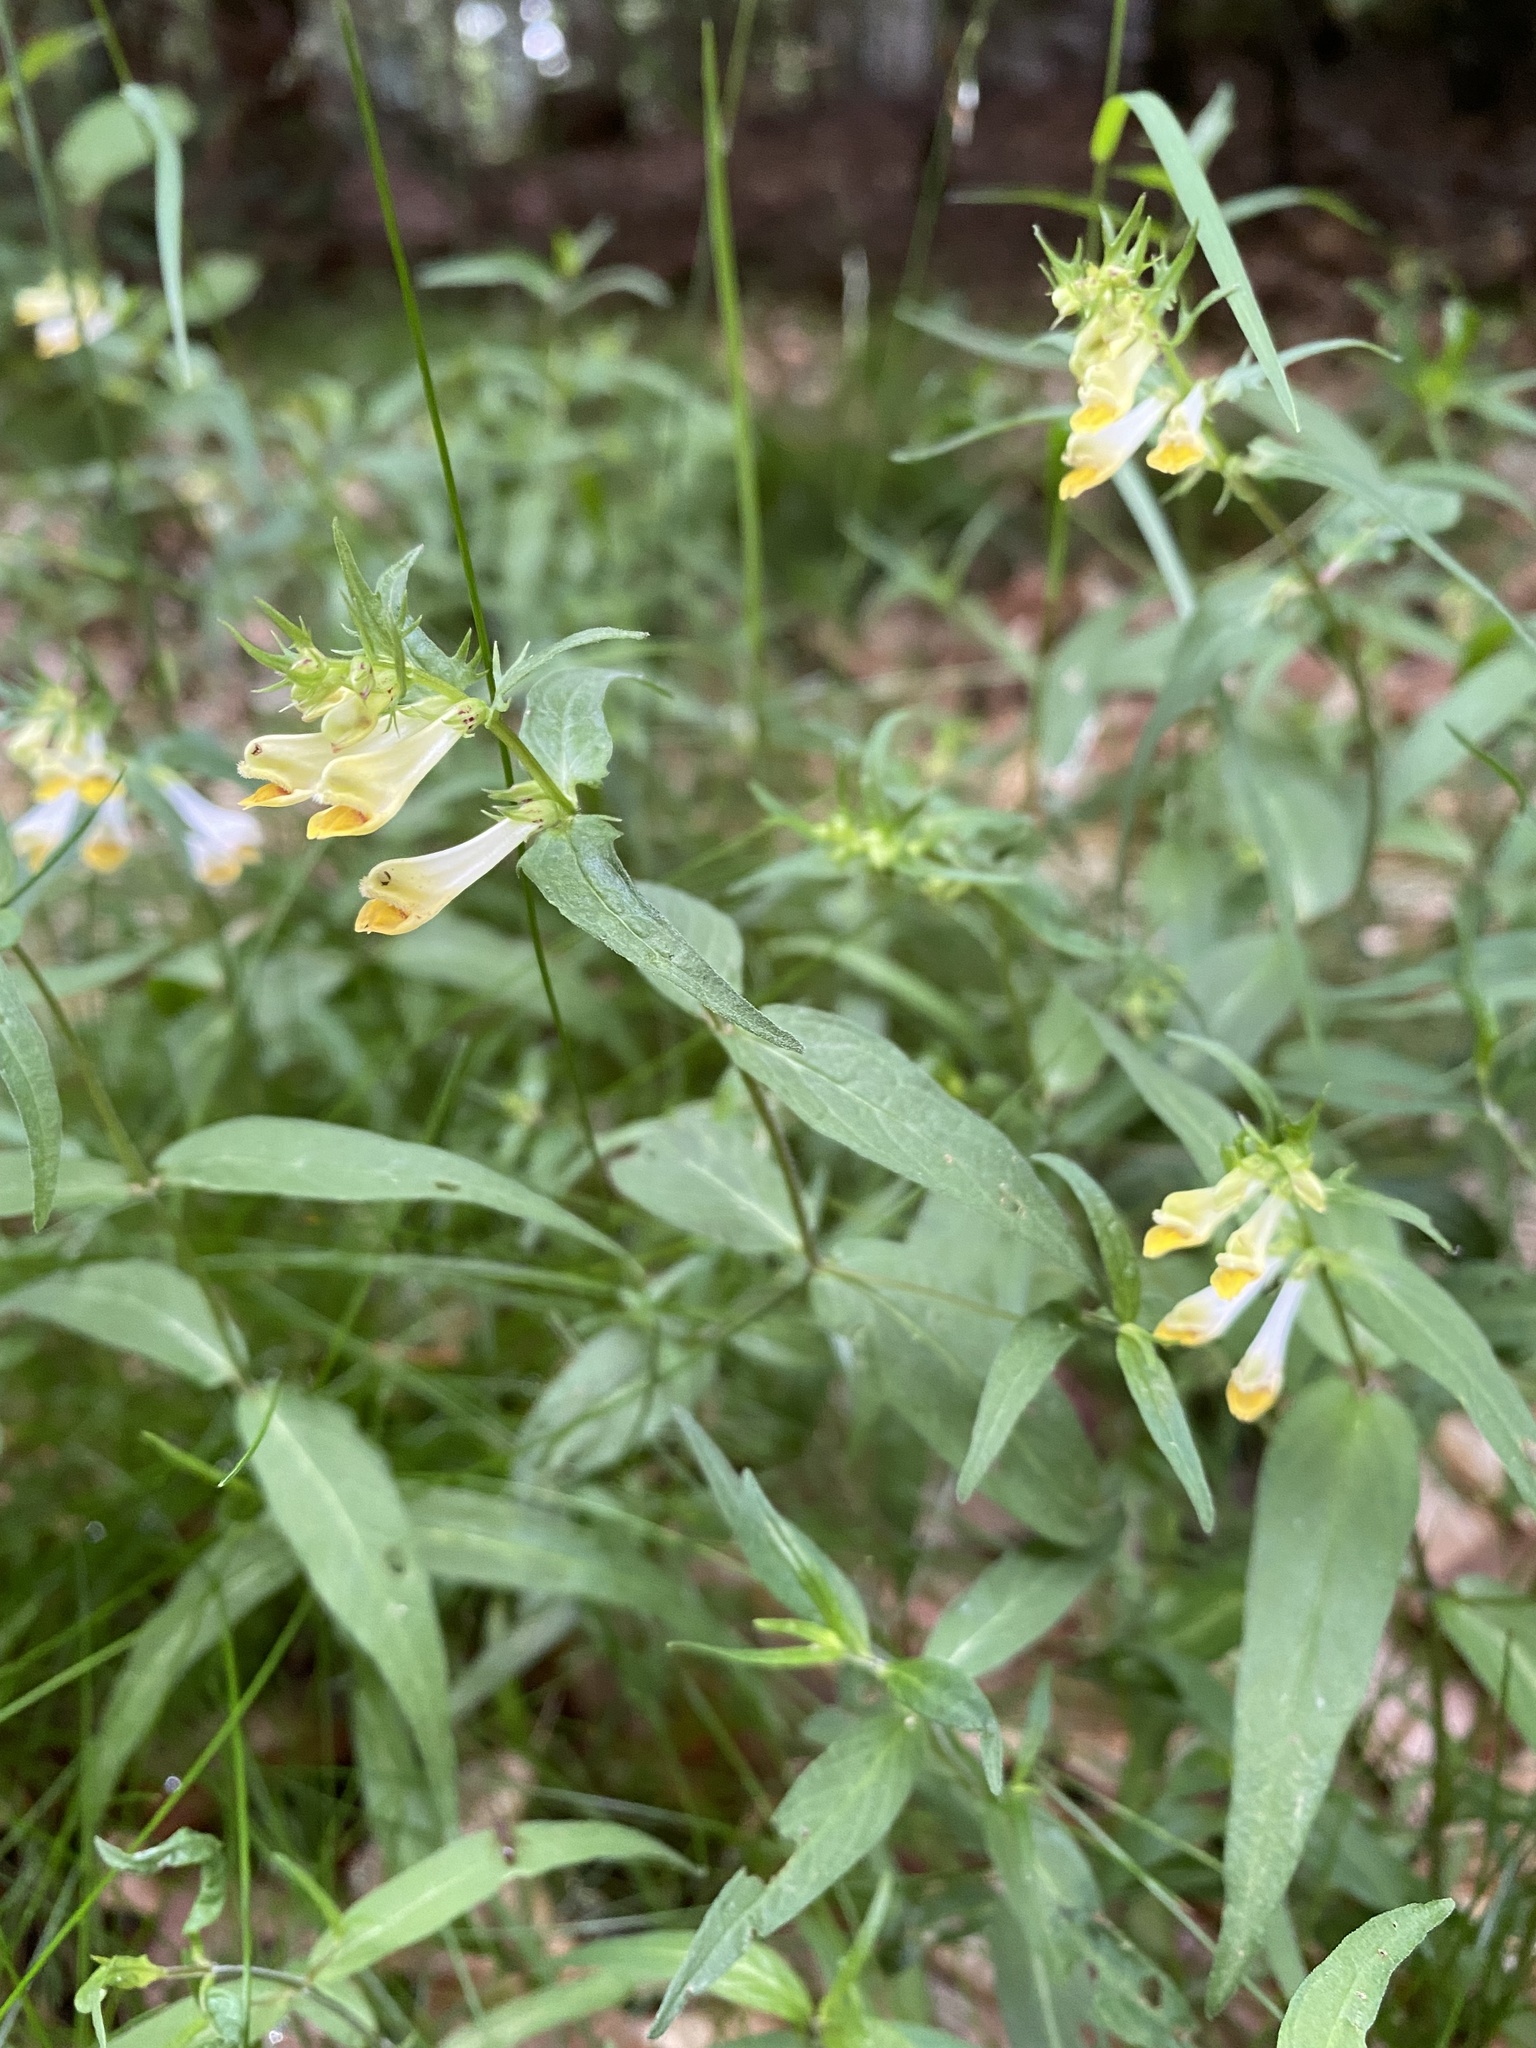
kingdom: Plantae
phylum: Tracheophyta
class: Magnoliopsida
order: Lamiales
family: Orobanchaceae
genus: Melampyrum
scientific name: Melampyrum pratense
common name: Common cow-wheat
